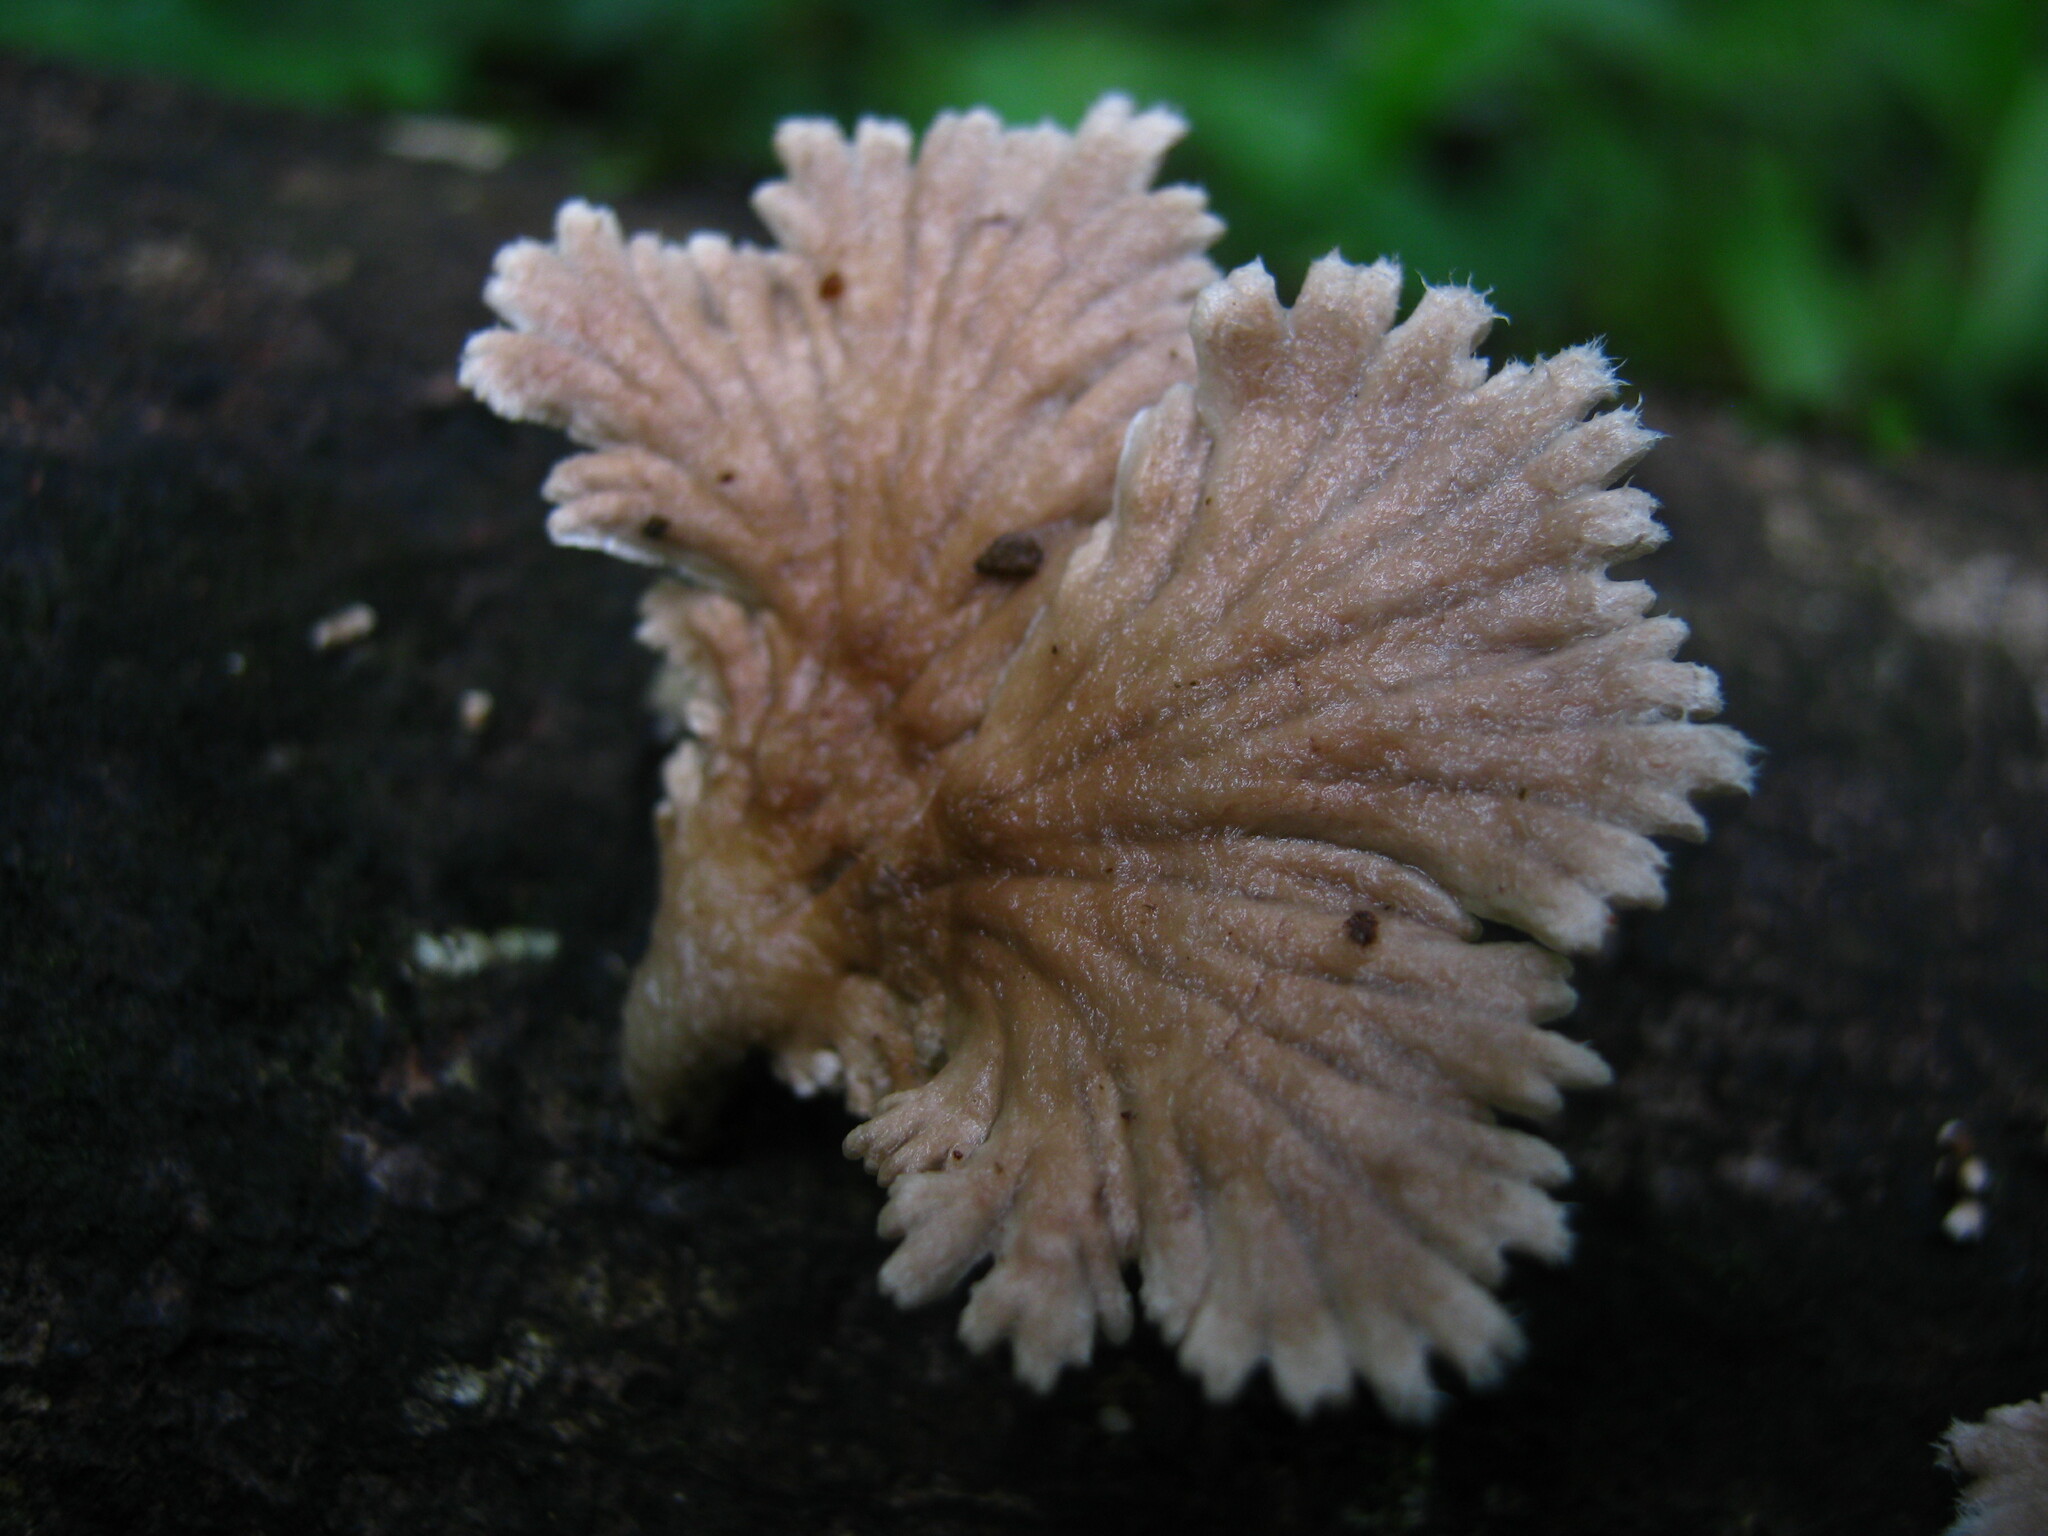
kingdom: Fungi
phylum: Basidiomycota
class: Agaricomycetes
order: Agaricales
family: Schizophyllaceae
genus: Schizophyllum
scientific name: Schizophyllum commune
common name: Common porecrust
